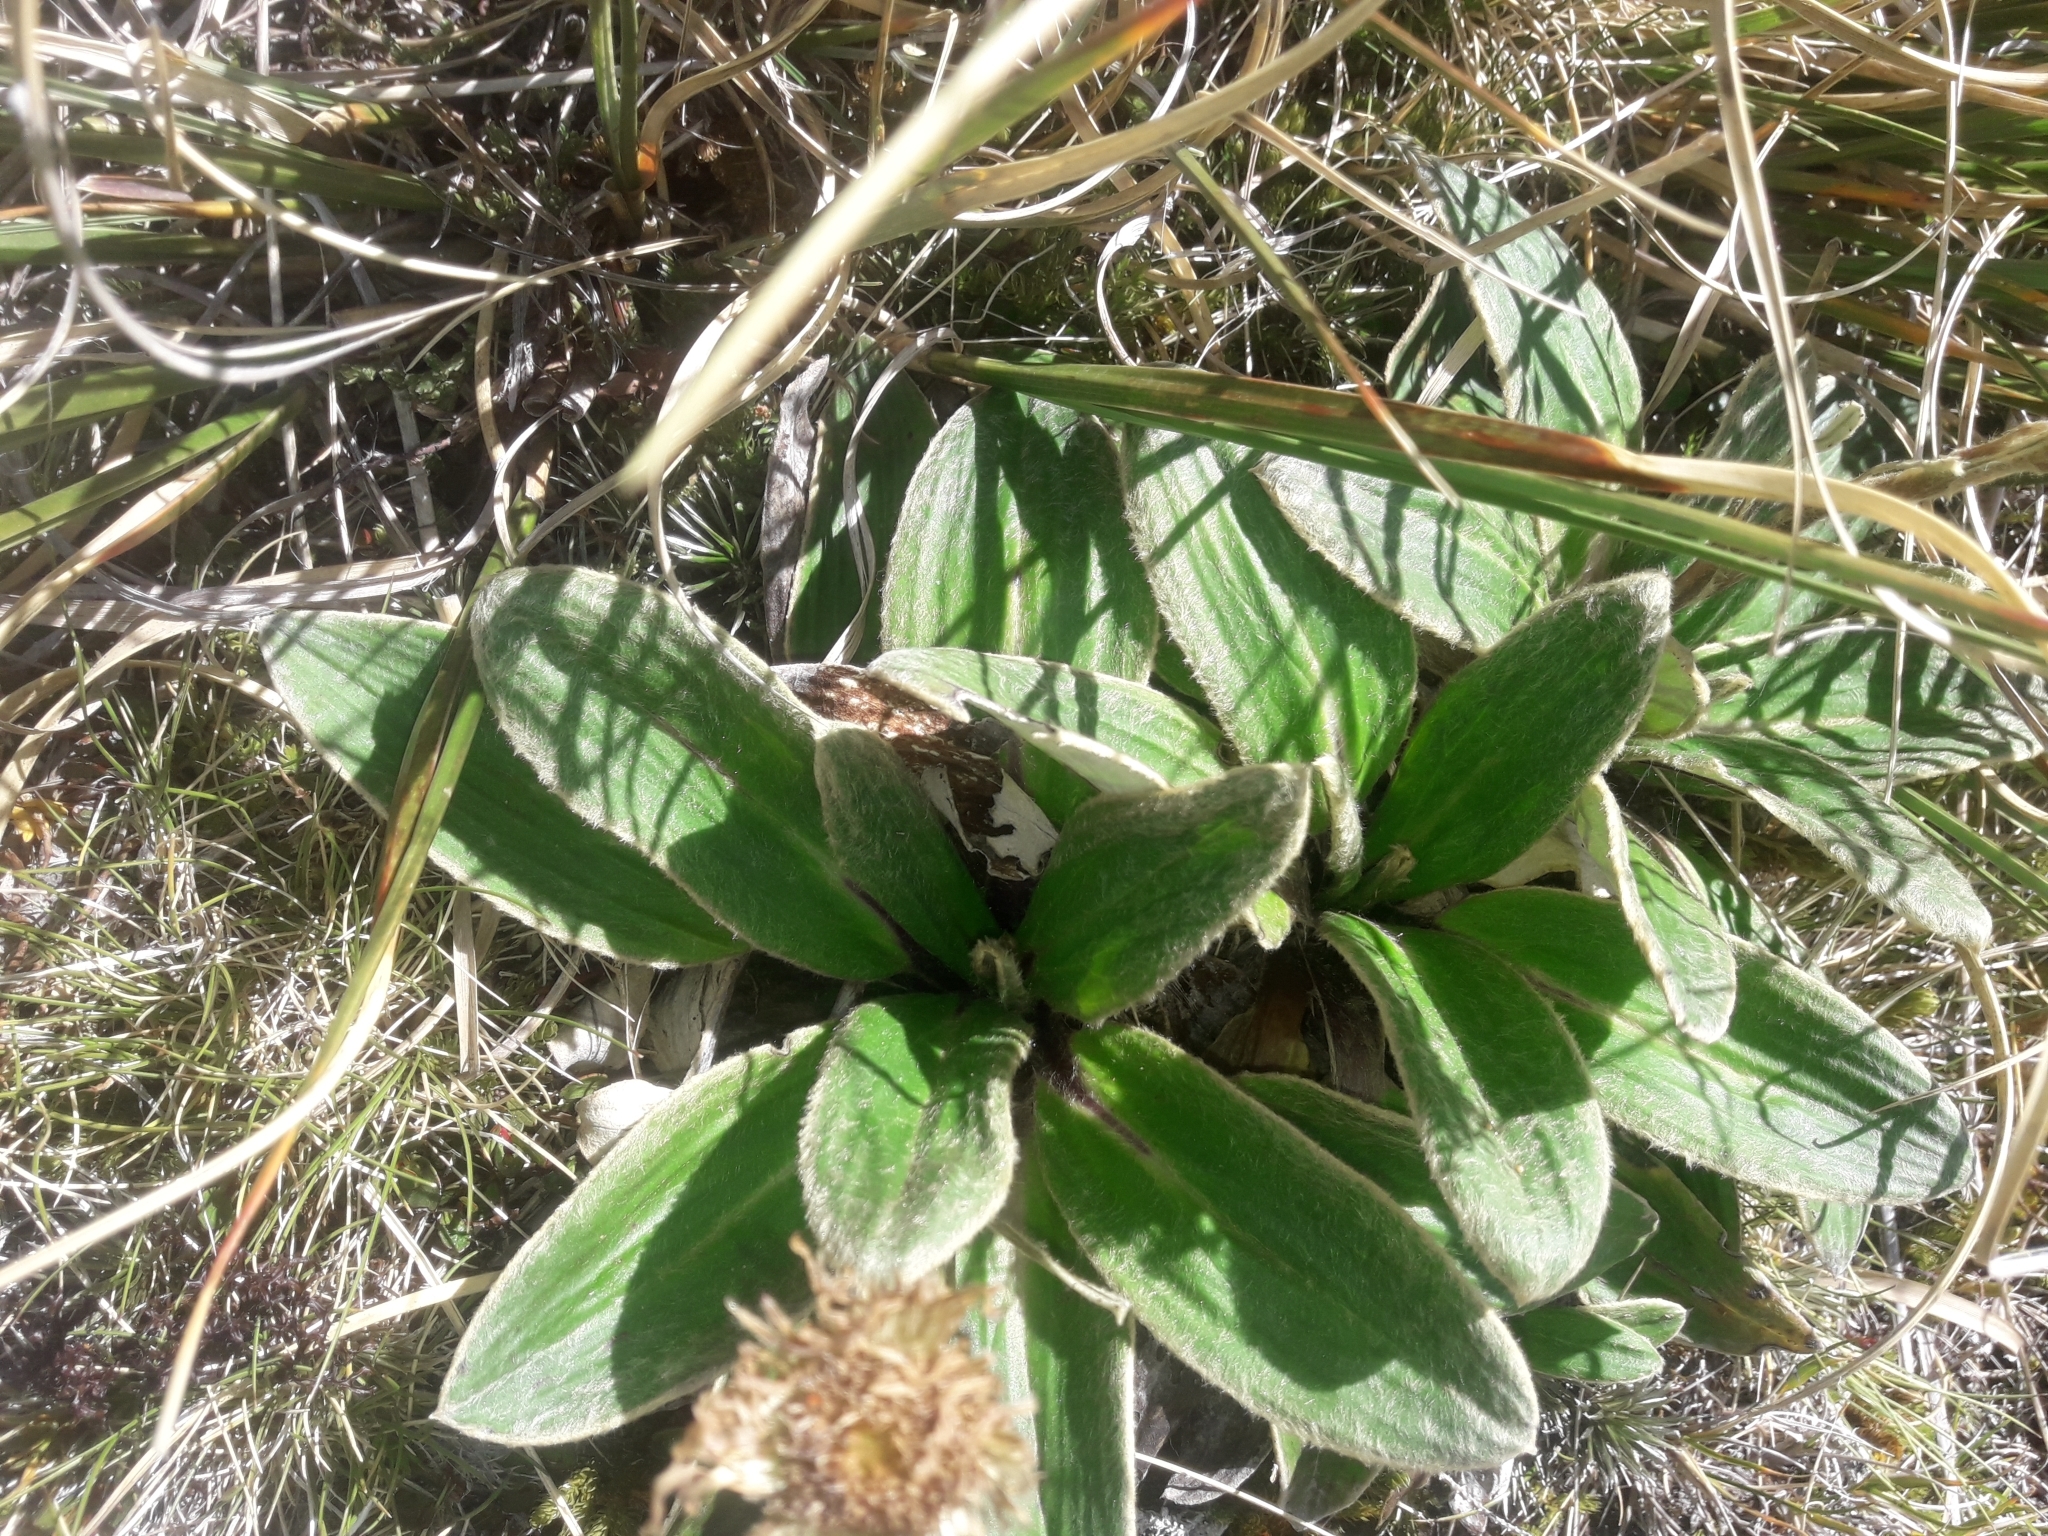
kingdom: Plantae
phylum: Tracheophyta
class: Magnoliopsida
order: Asterales
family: Asteraceae
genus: Celmisia
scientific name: Celmisia verbascifolia
